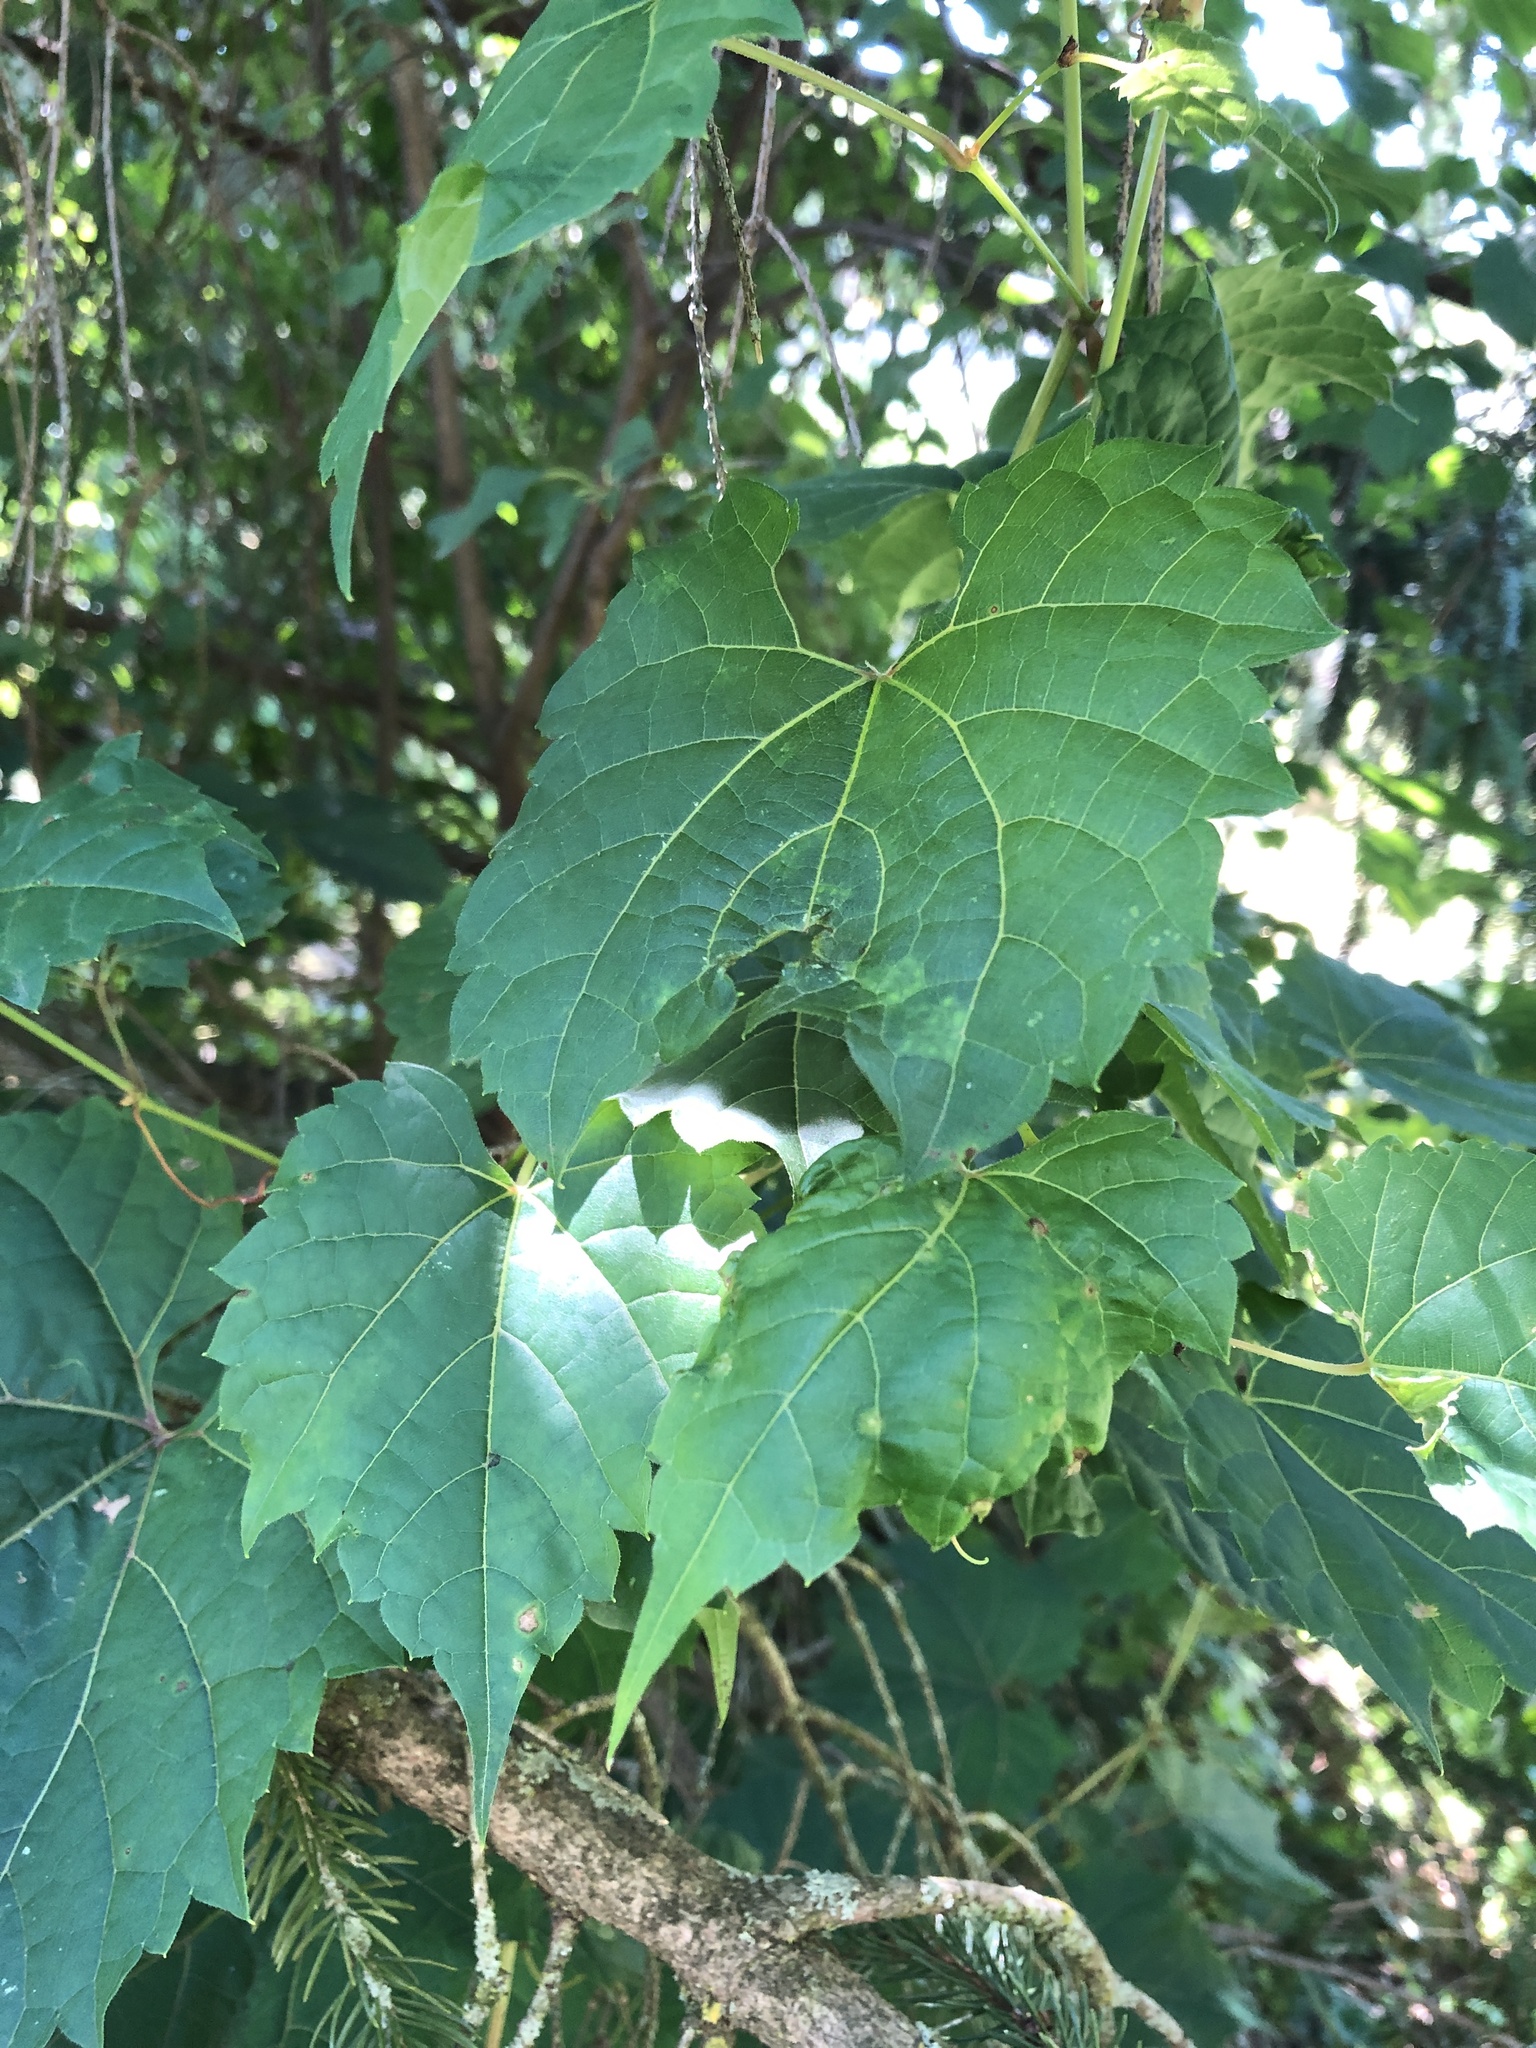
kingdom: Plantae
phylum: Tracheophyta
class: Magnoliopsida
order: Vitales
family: Vitaceae
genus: Vitis
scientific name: Vitis riparia
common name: Frost grape
